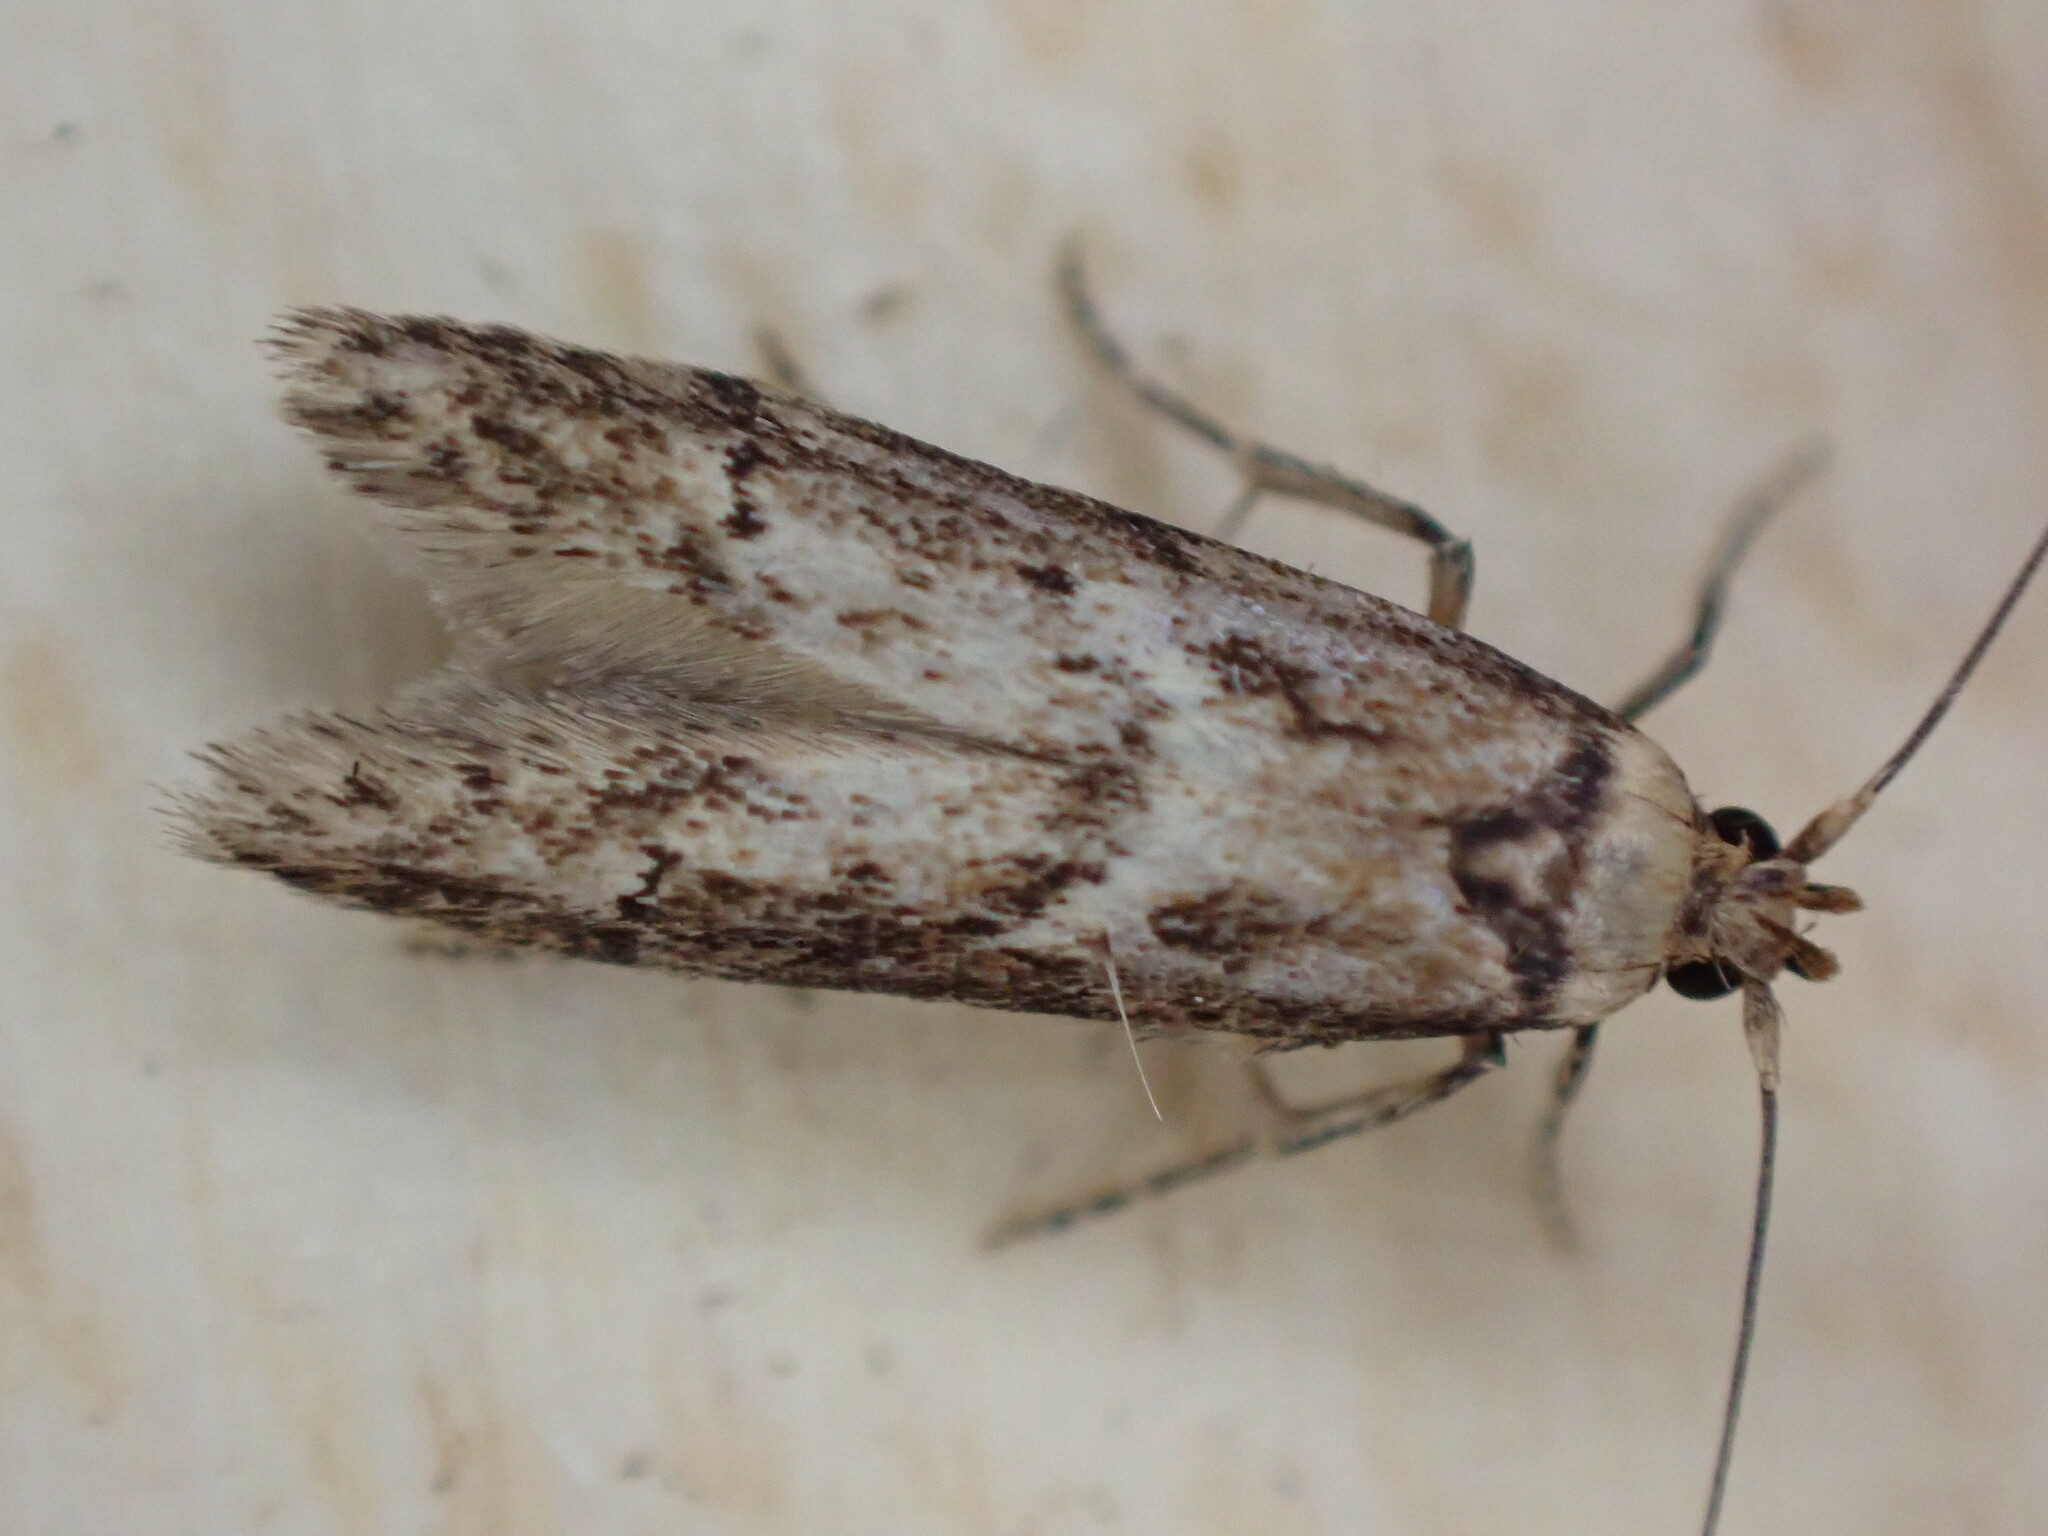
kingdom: Animalia
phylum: Arthropoda
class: Insecta
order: Lepidoptera
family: Blastobasidae
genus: Blastobasis
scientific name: Blastobasis adustella
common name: Dingy dowd
